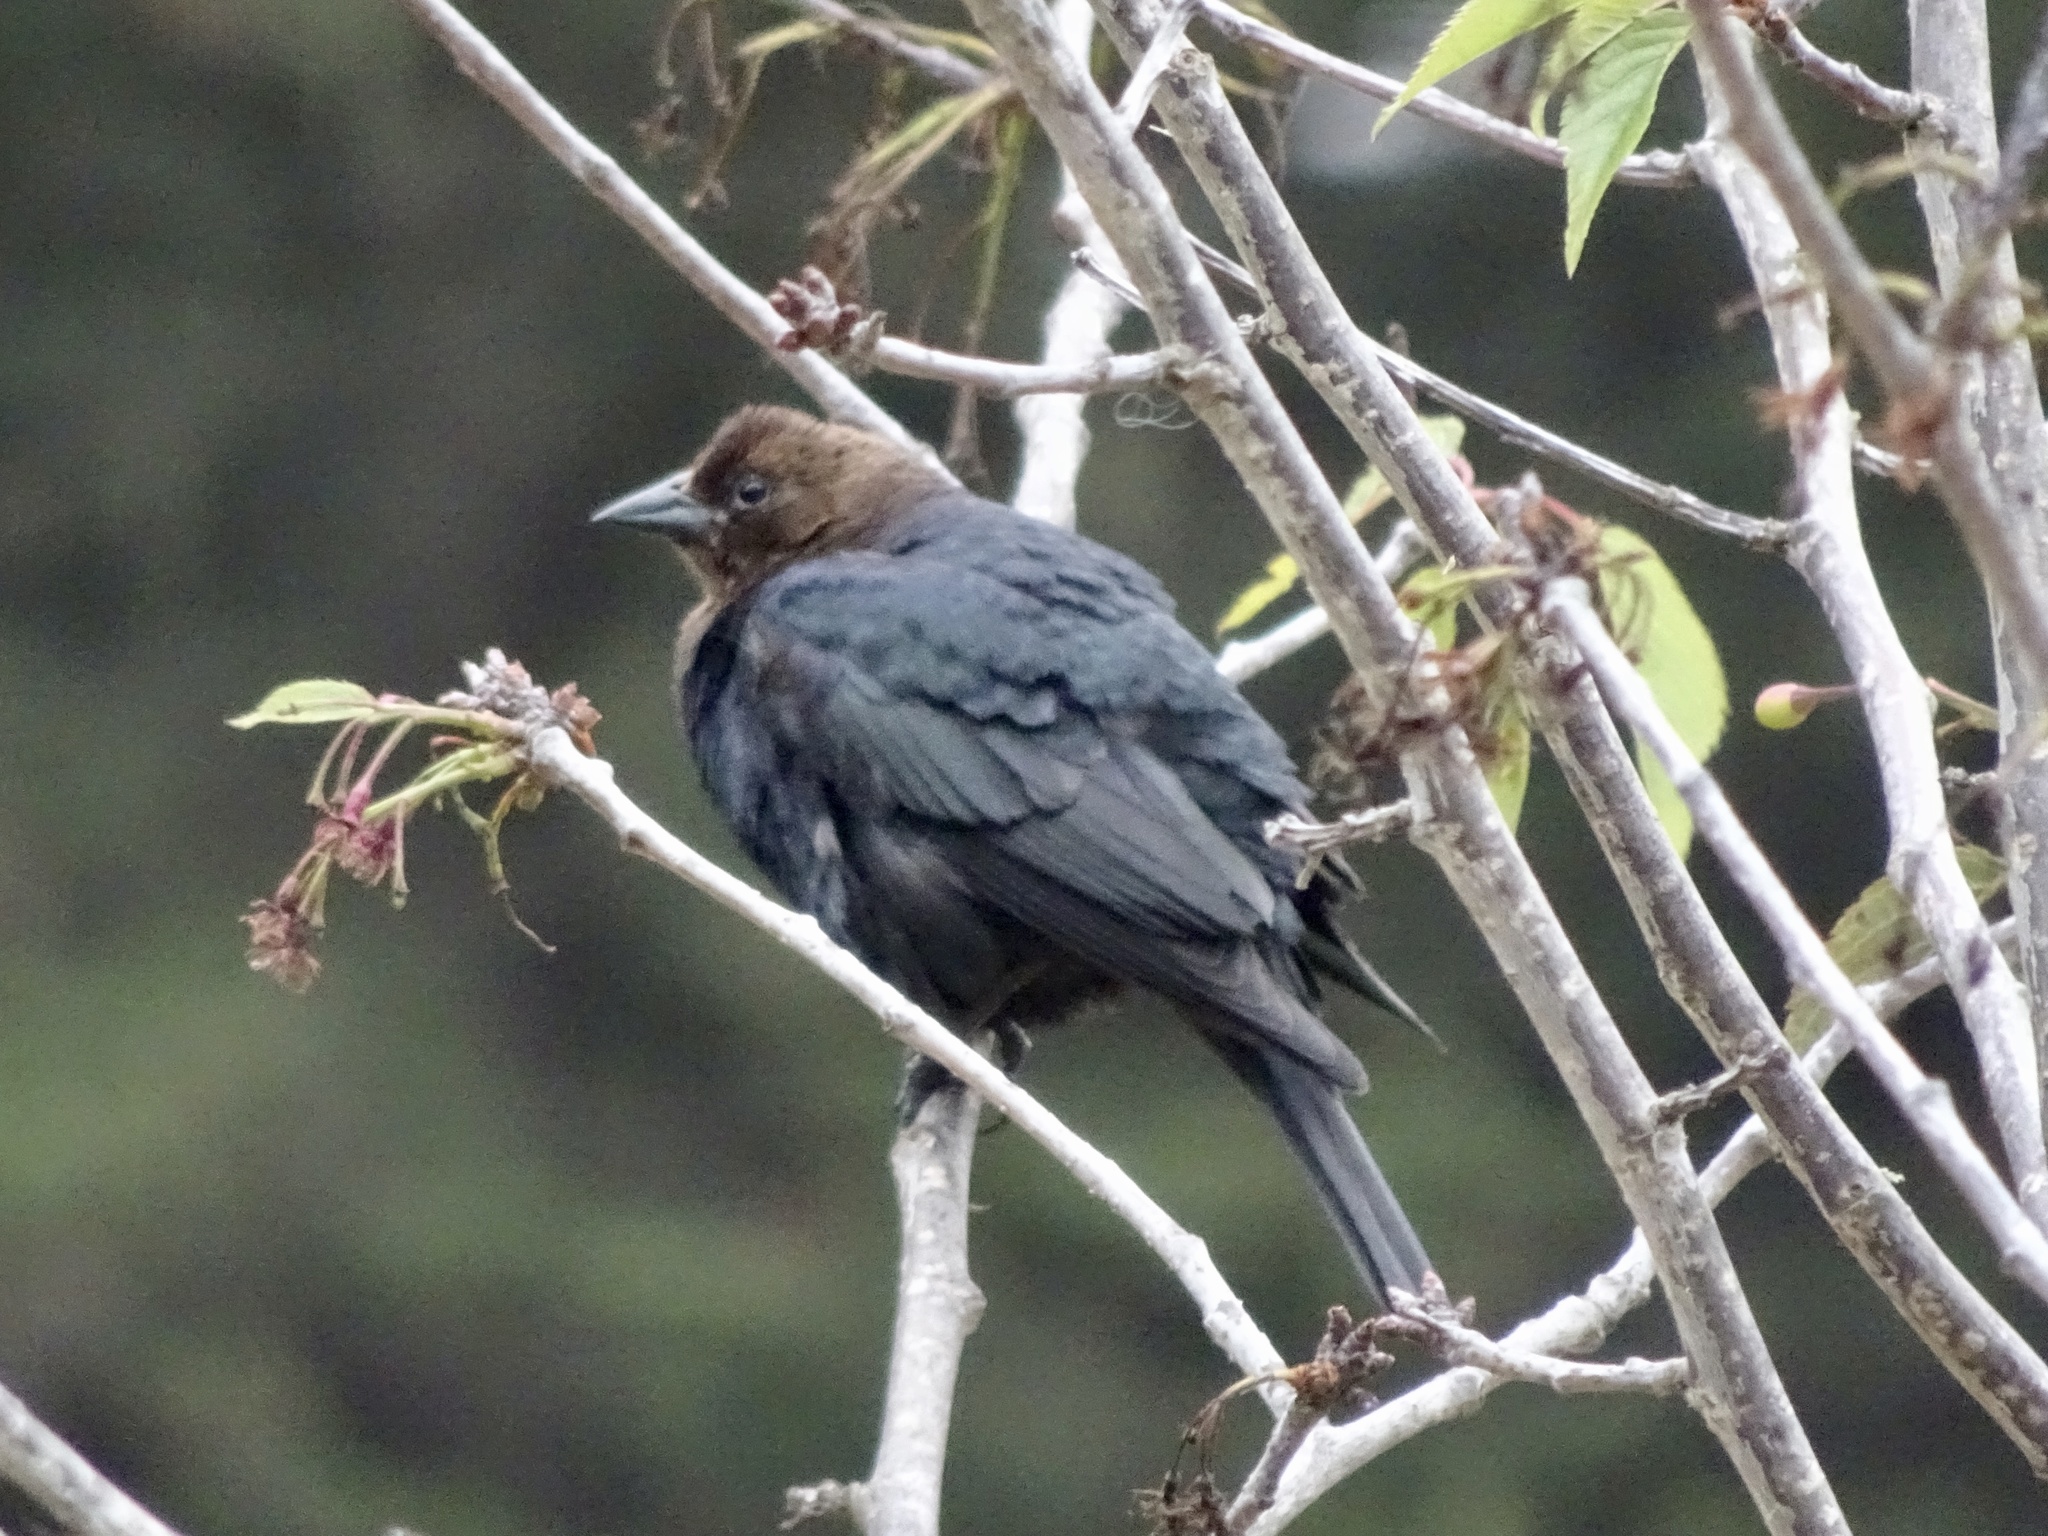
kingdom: Animalia
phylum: Chordata
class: Aves
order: Passeriformes
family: Icteridae
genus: Molothrus
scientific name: Molothrus ater
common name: Brown-headed cowbird
